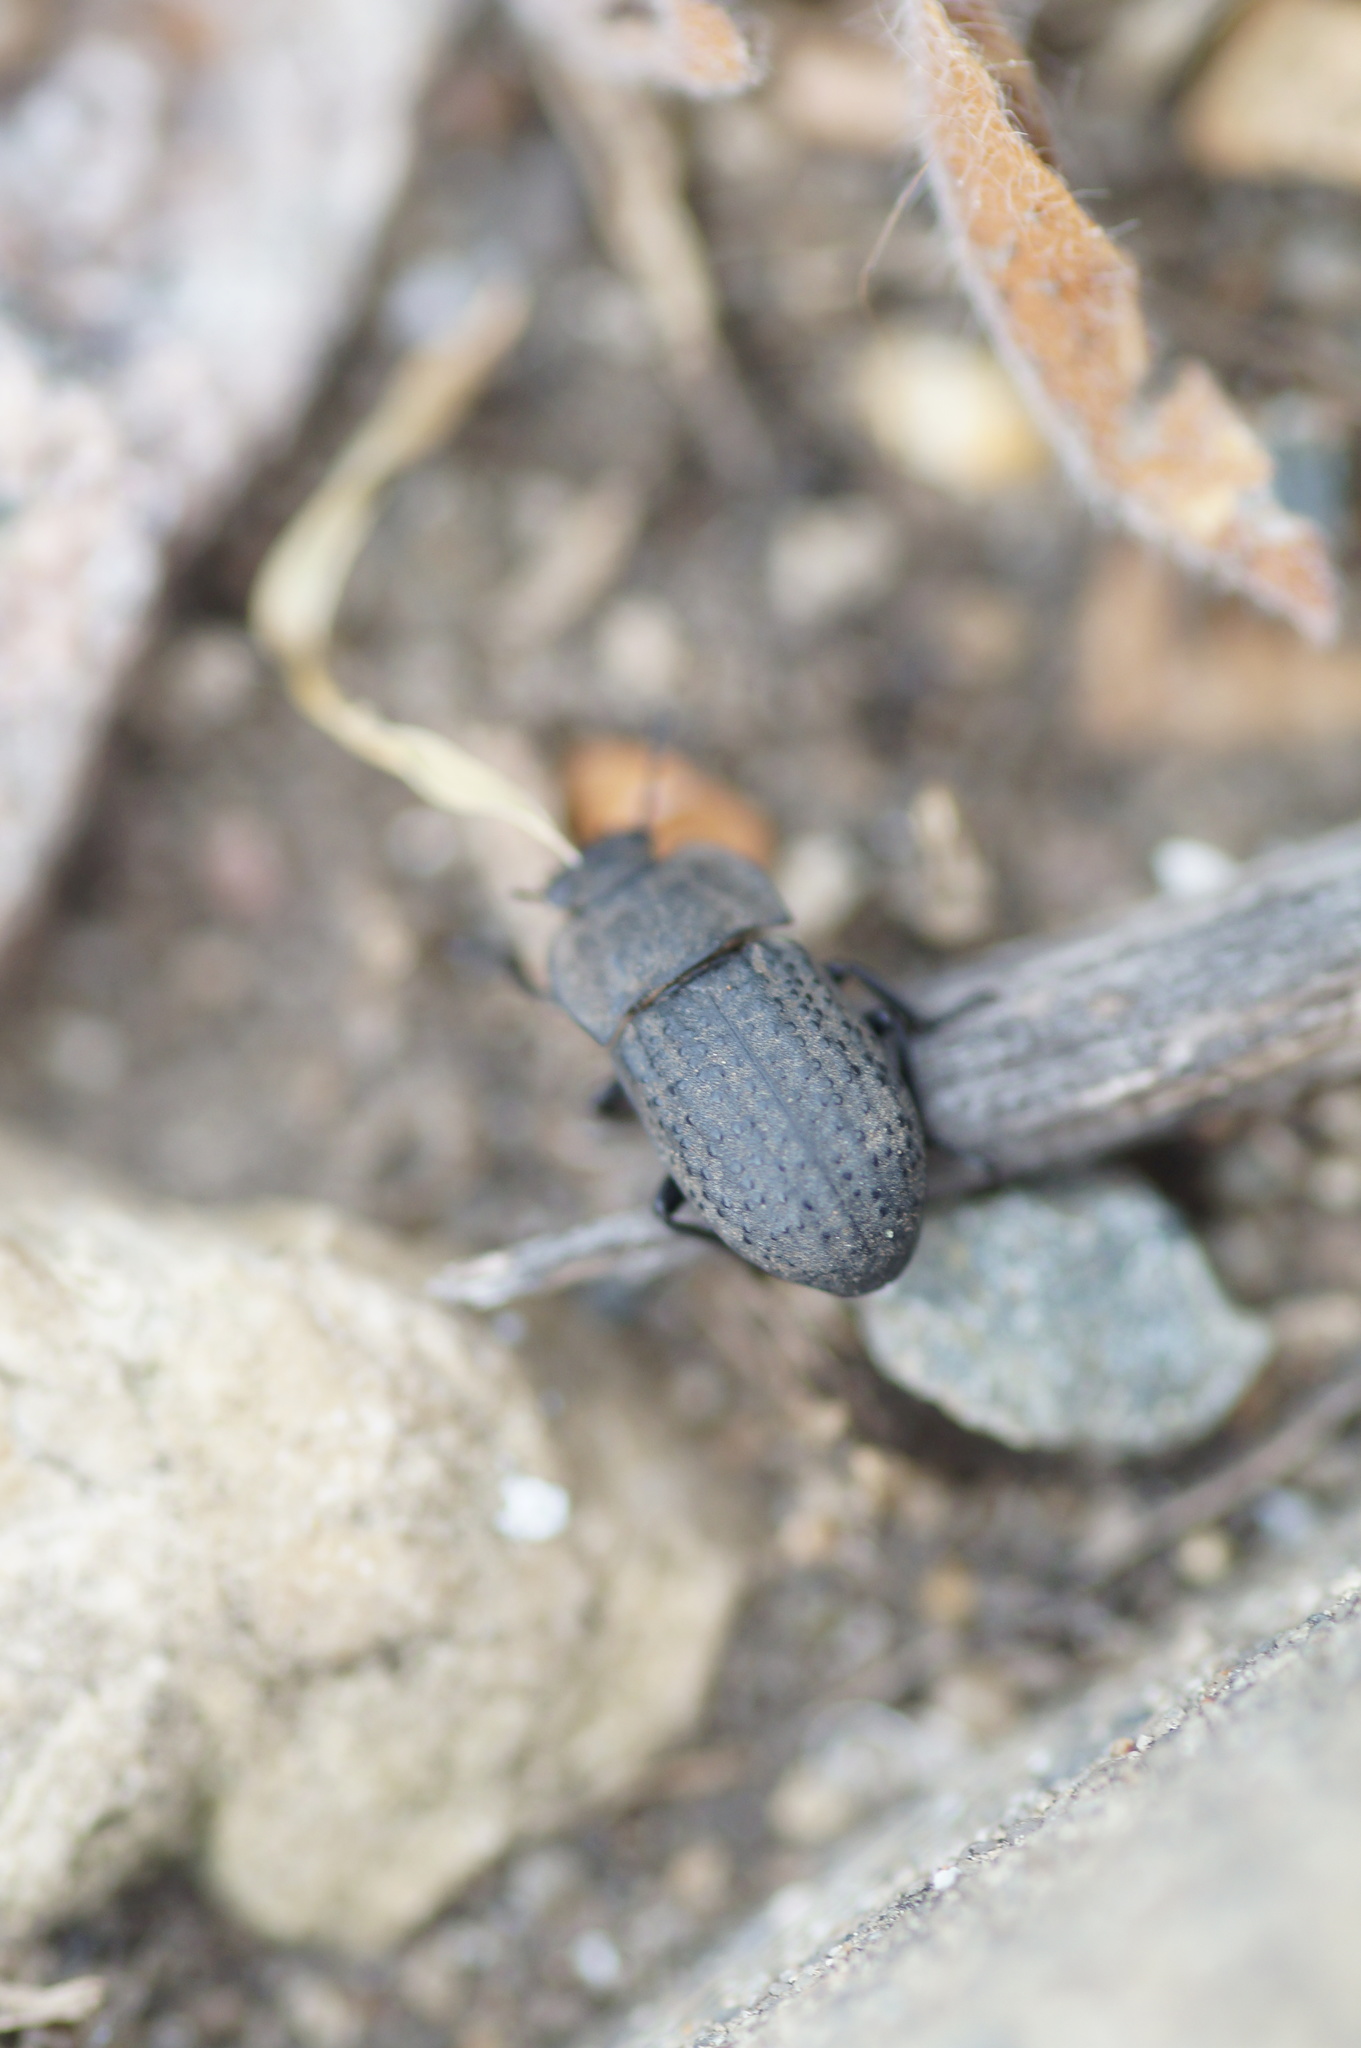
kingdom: Animalia
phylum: Arthropoda
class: Insecta
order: Coleoptera
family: Tenebrionidae
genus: Opatrum
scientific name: Opatrum sabulosum
